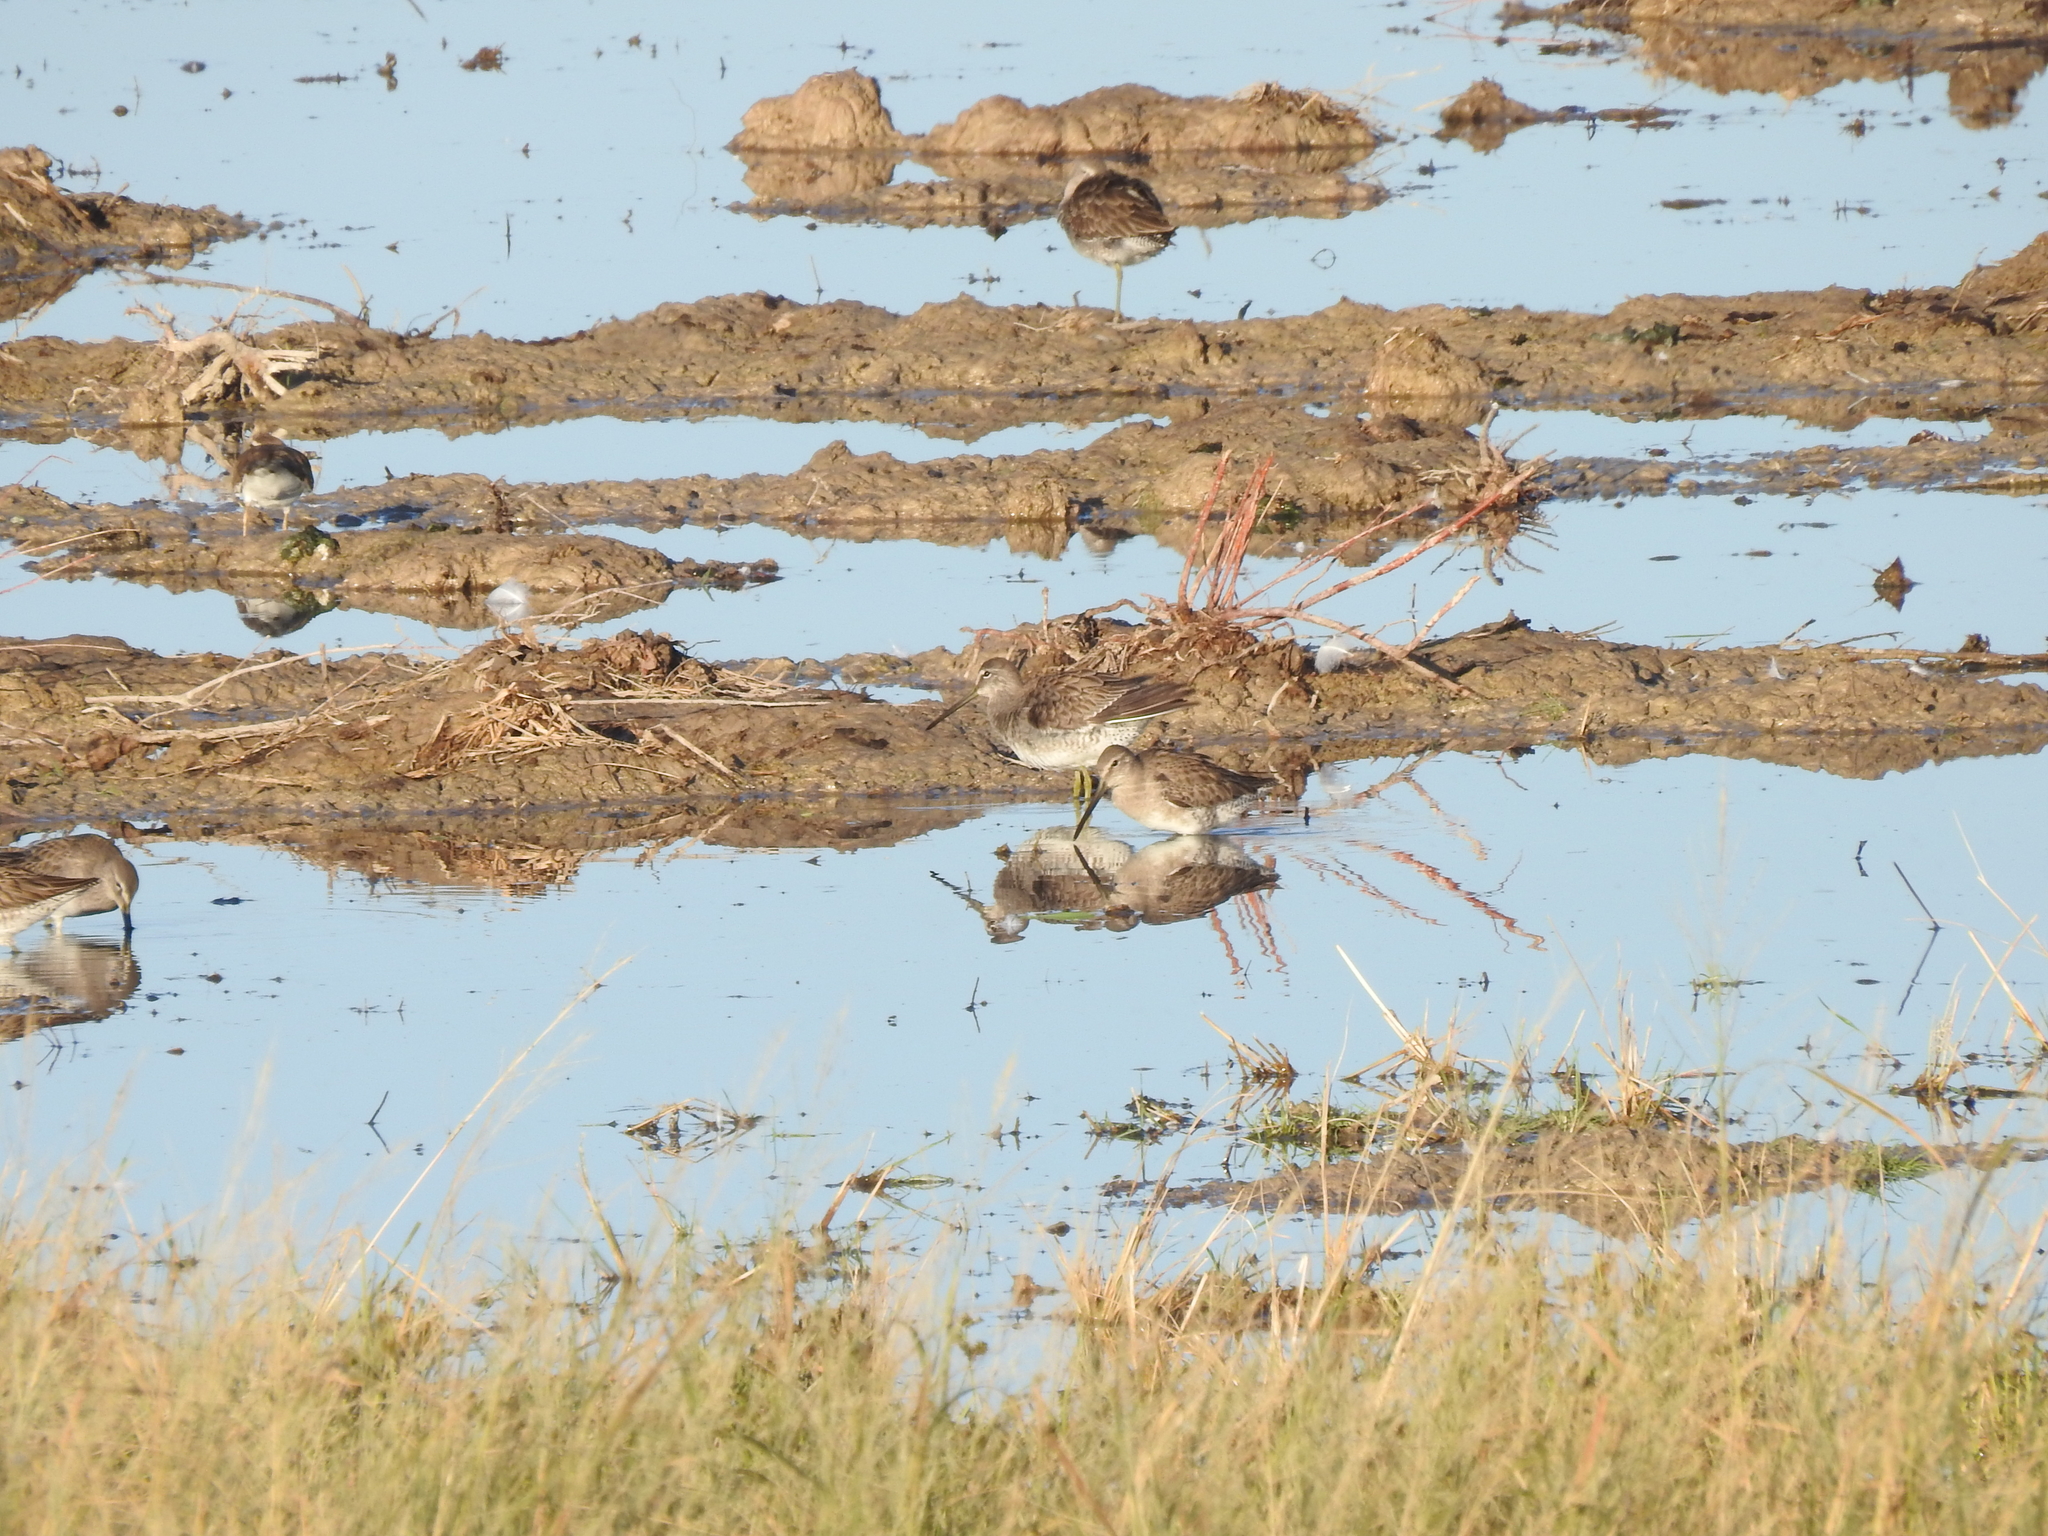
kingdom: Animalia
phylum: Chordata
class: Aves
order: Charadriiformes
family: Scolopacidae
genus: Limnodromus
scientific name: Limnodromus scolopaceus
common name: Long-billed dowitcher
